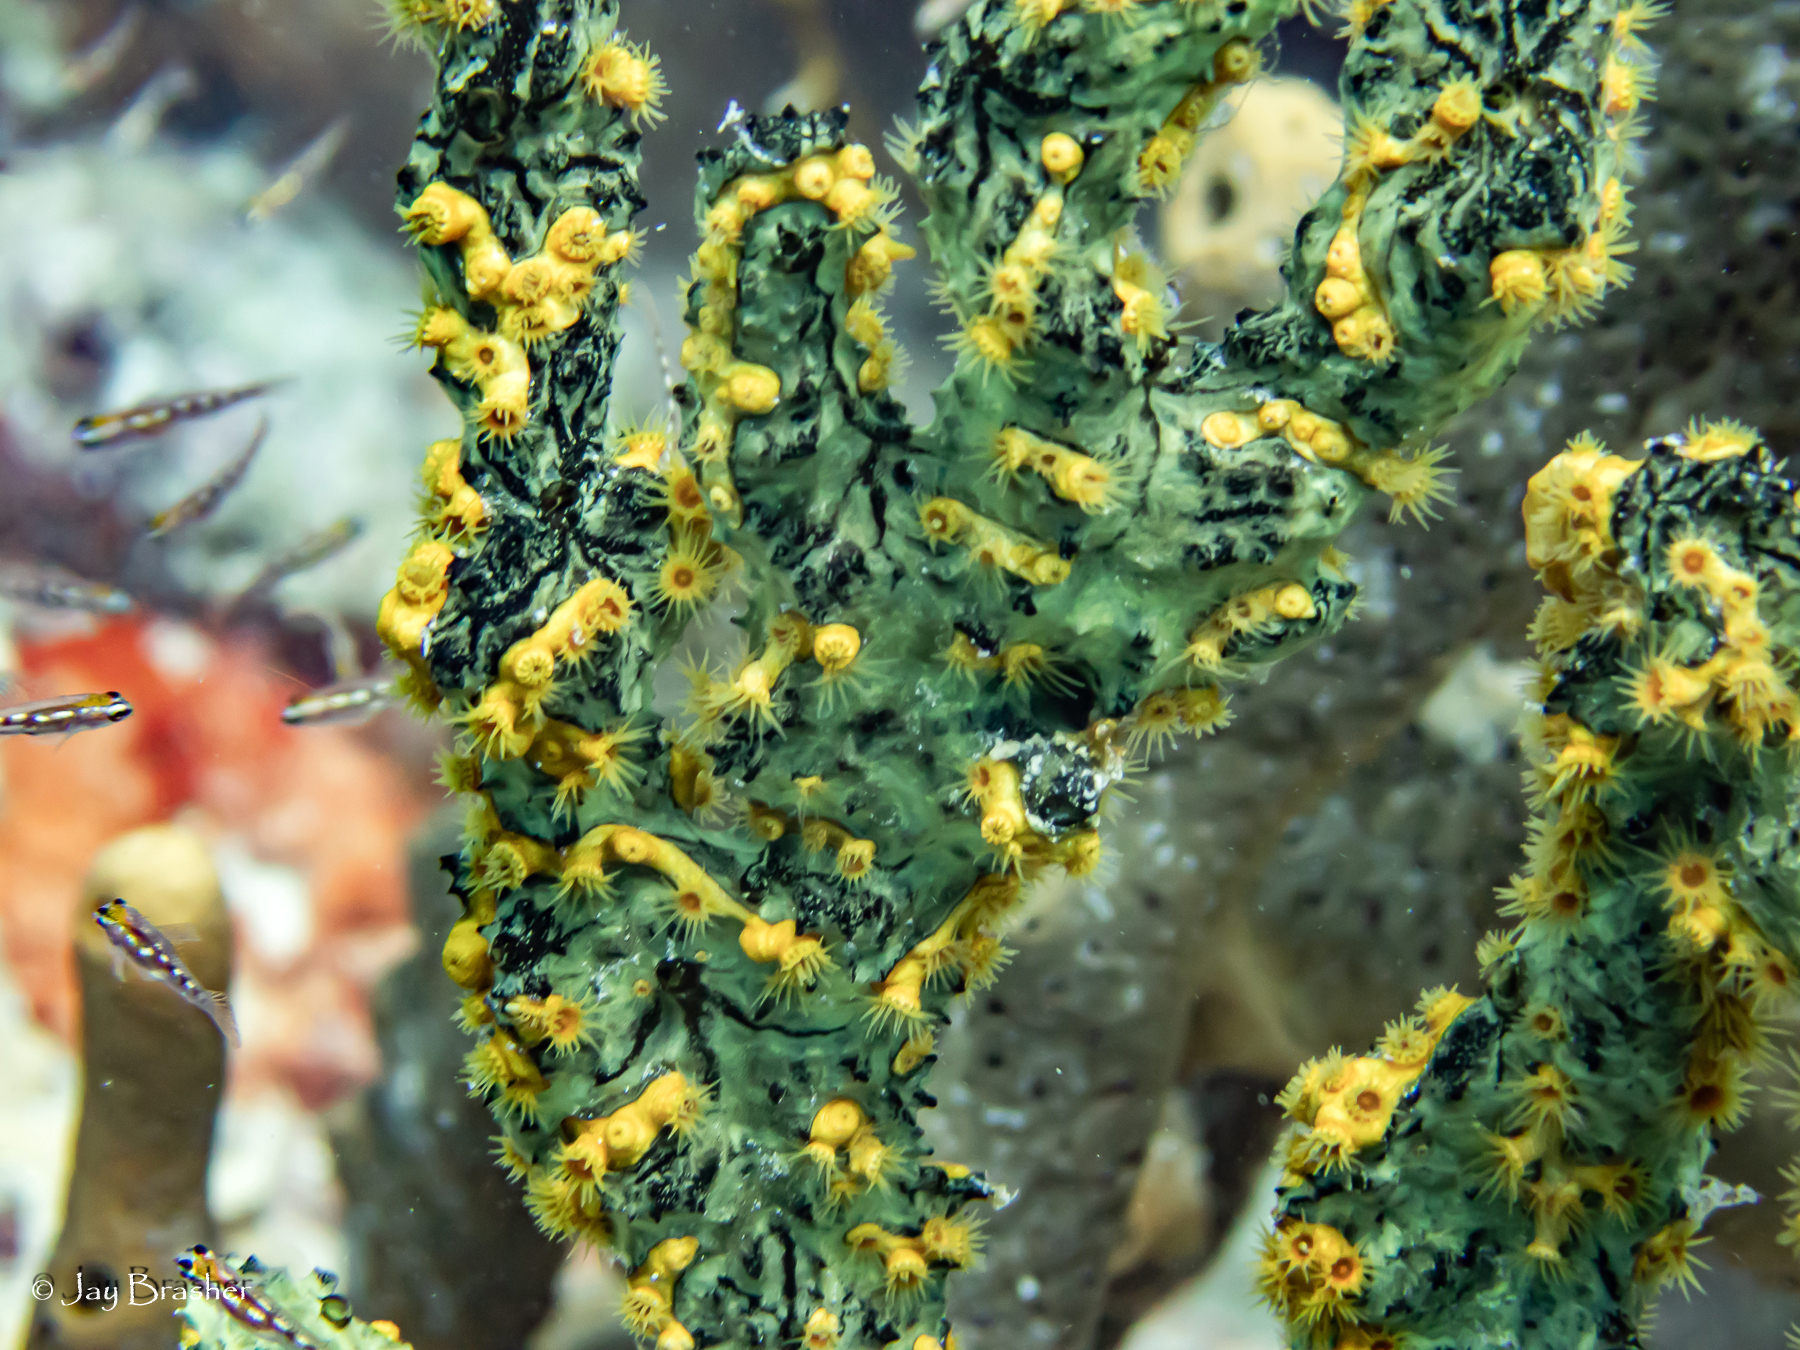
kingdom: Animalia
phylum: Cnidaria
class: Anthozoa
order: Zoantharia
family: Parazoanthidae
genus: Parazoanthus
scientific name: Parazoanthus swiftii
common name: Golden zoanthid
